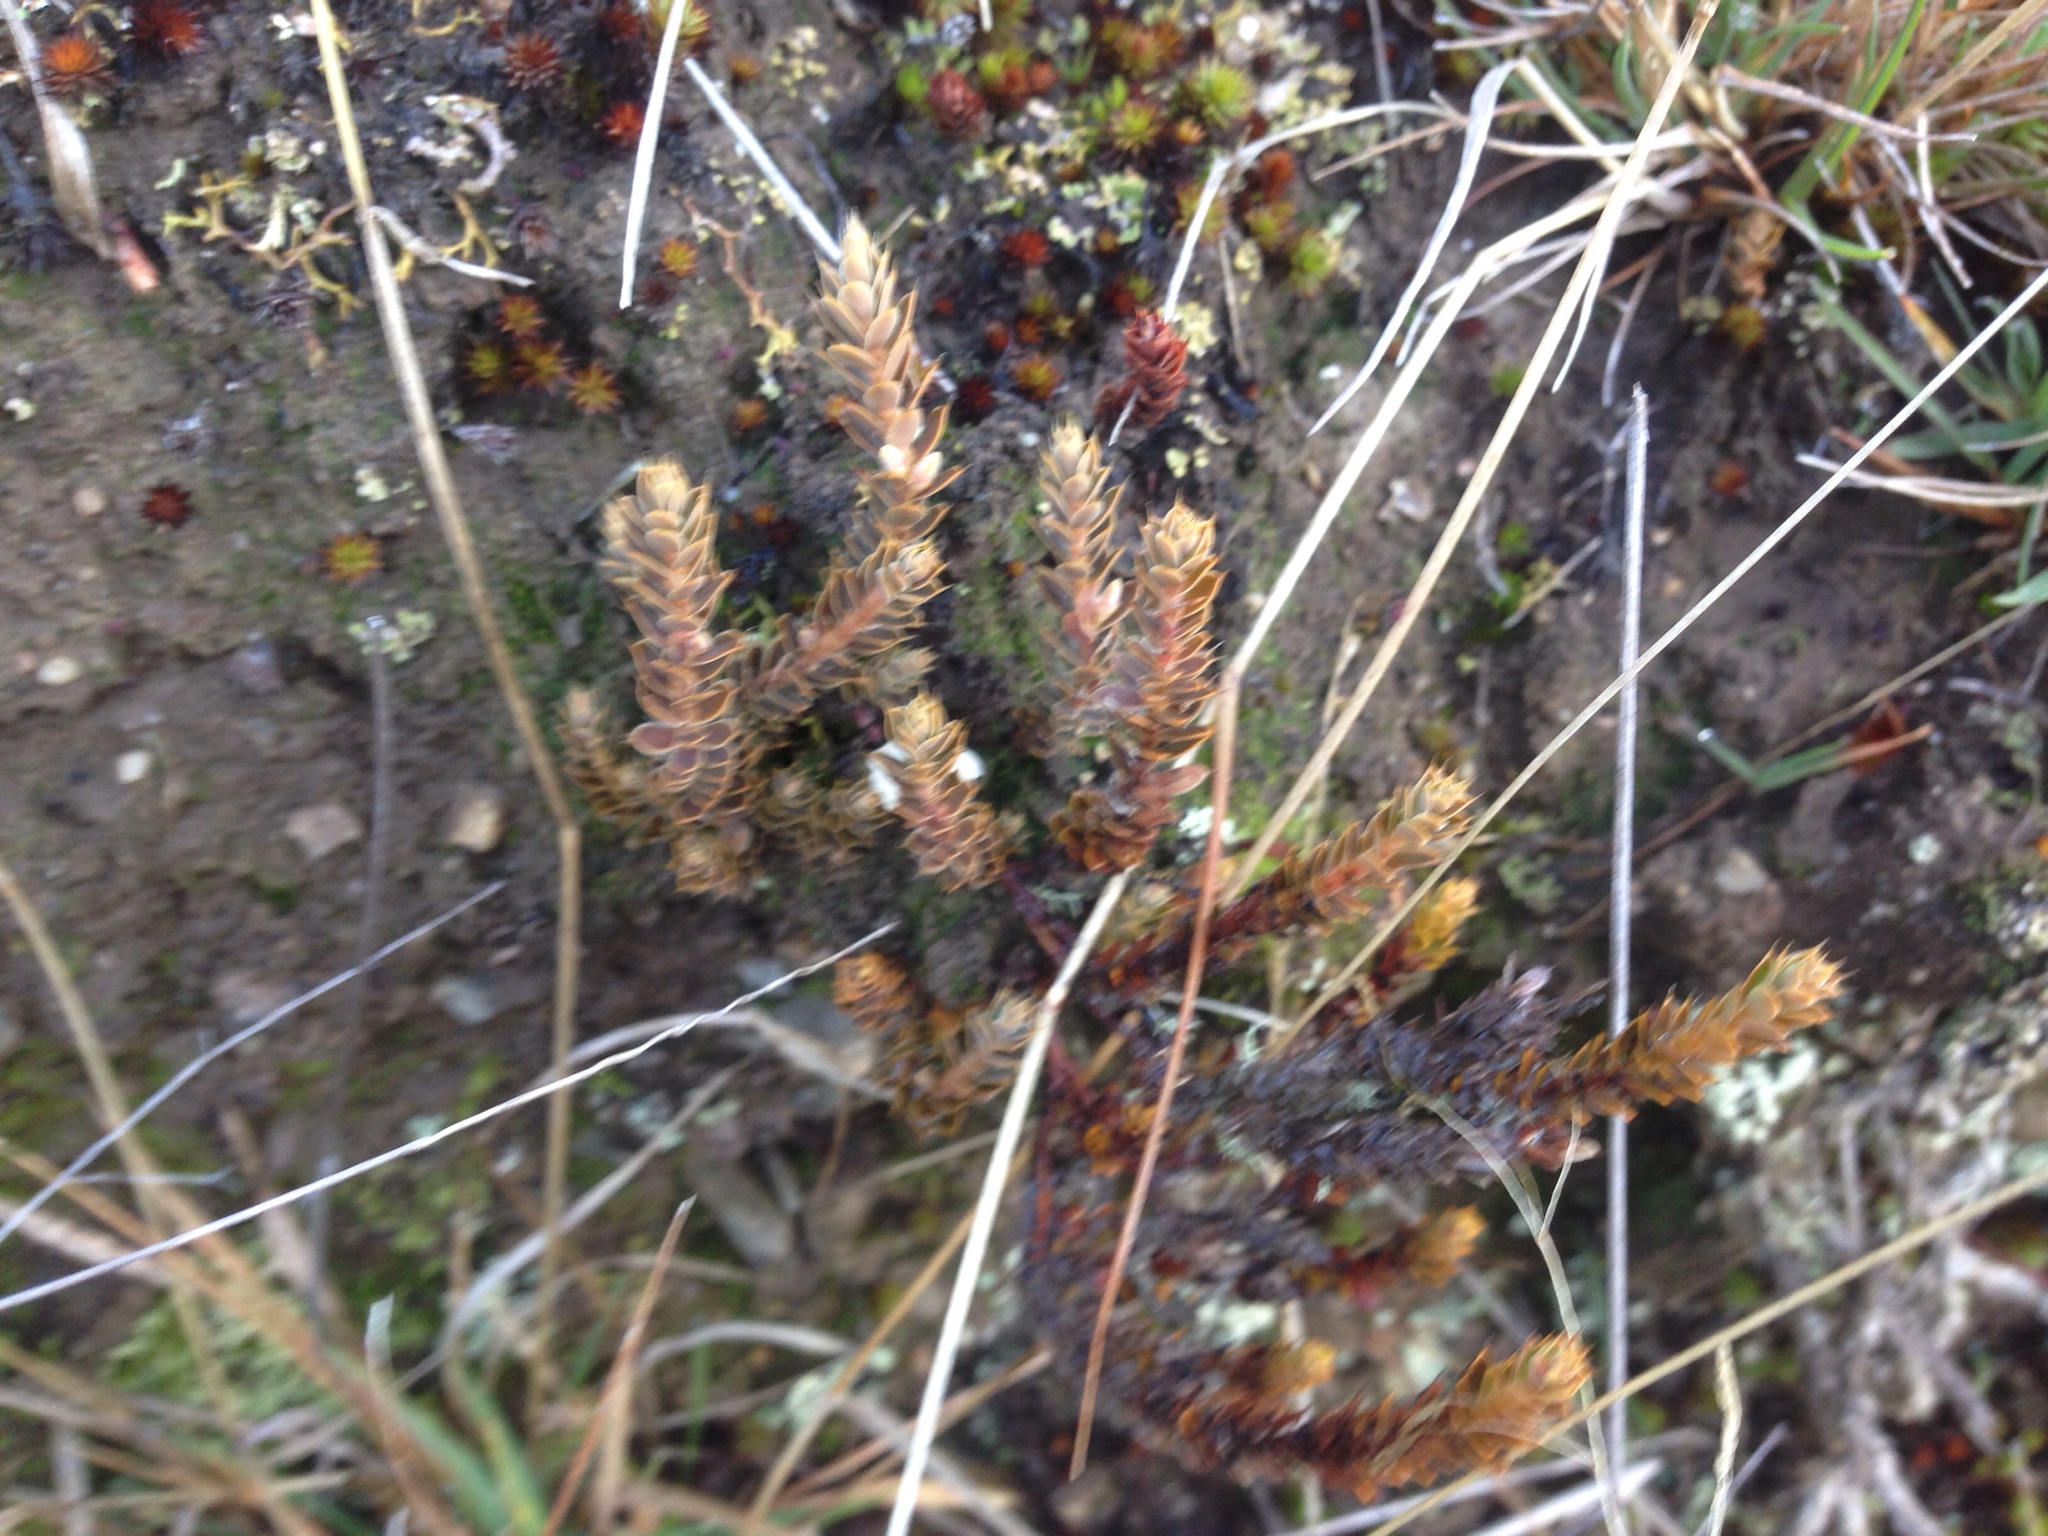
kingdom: Plantae
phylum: Tracheophyta
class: Magnoliopsida
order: Ericales
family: Ericaceae
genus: Styphelia
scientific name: Styphelia nesophila
